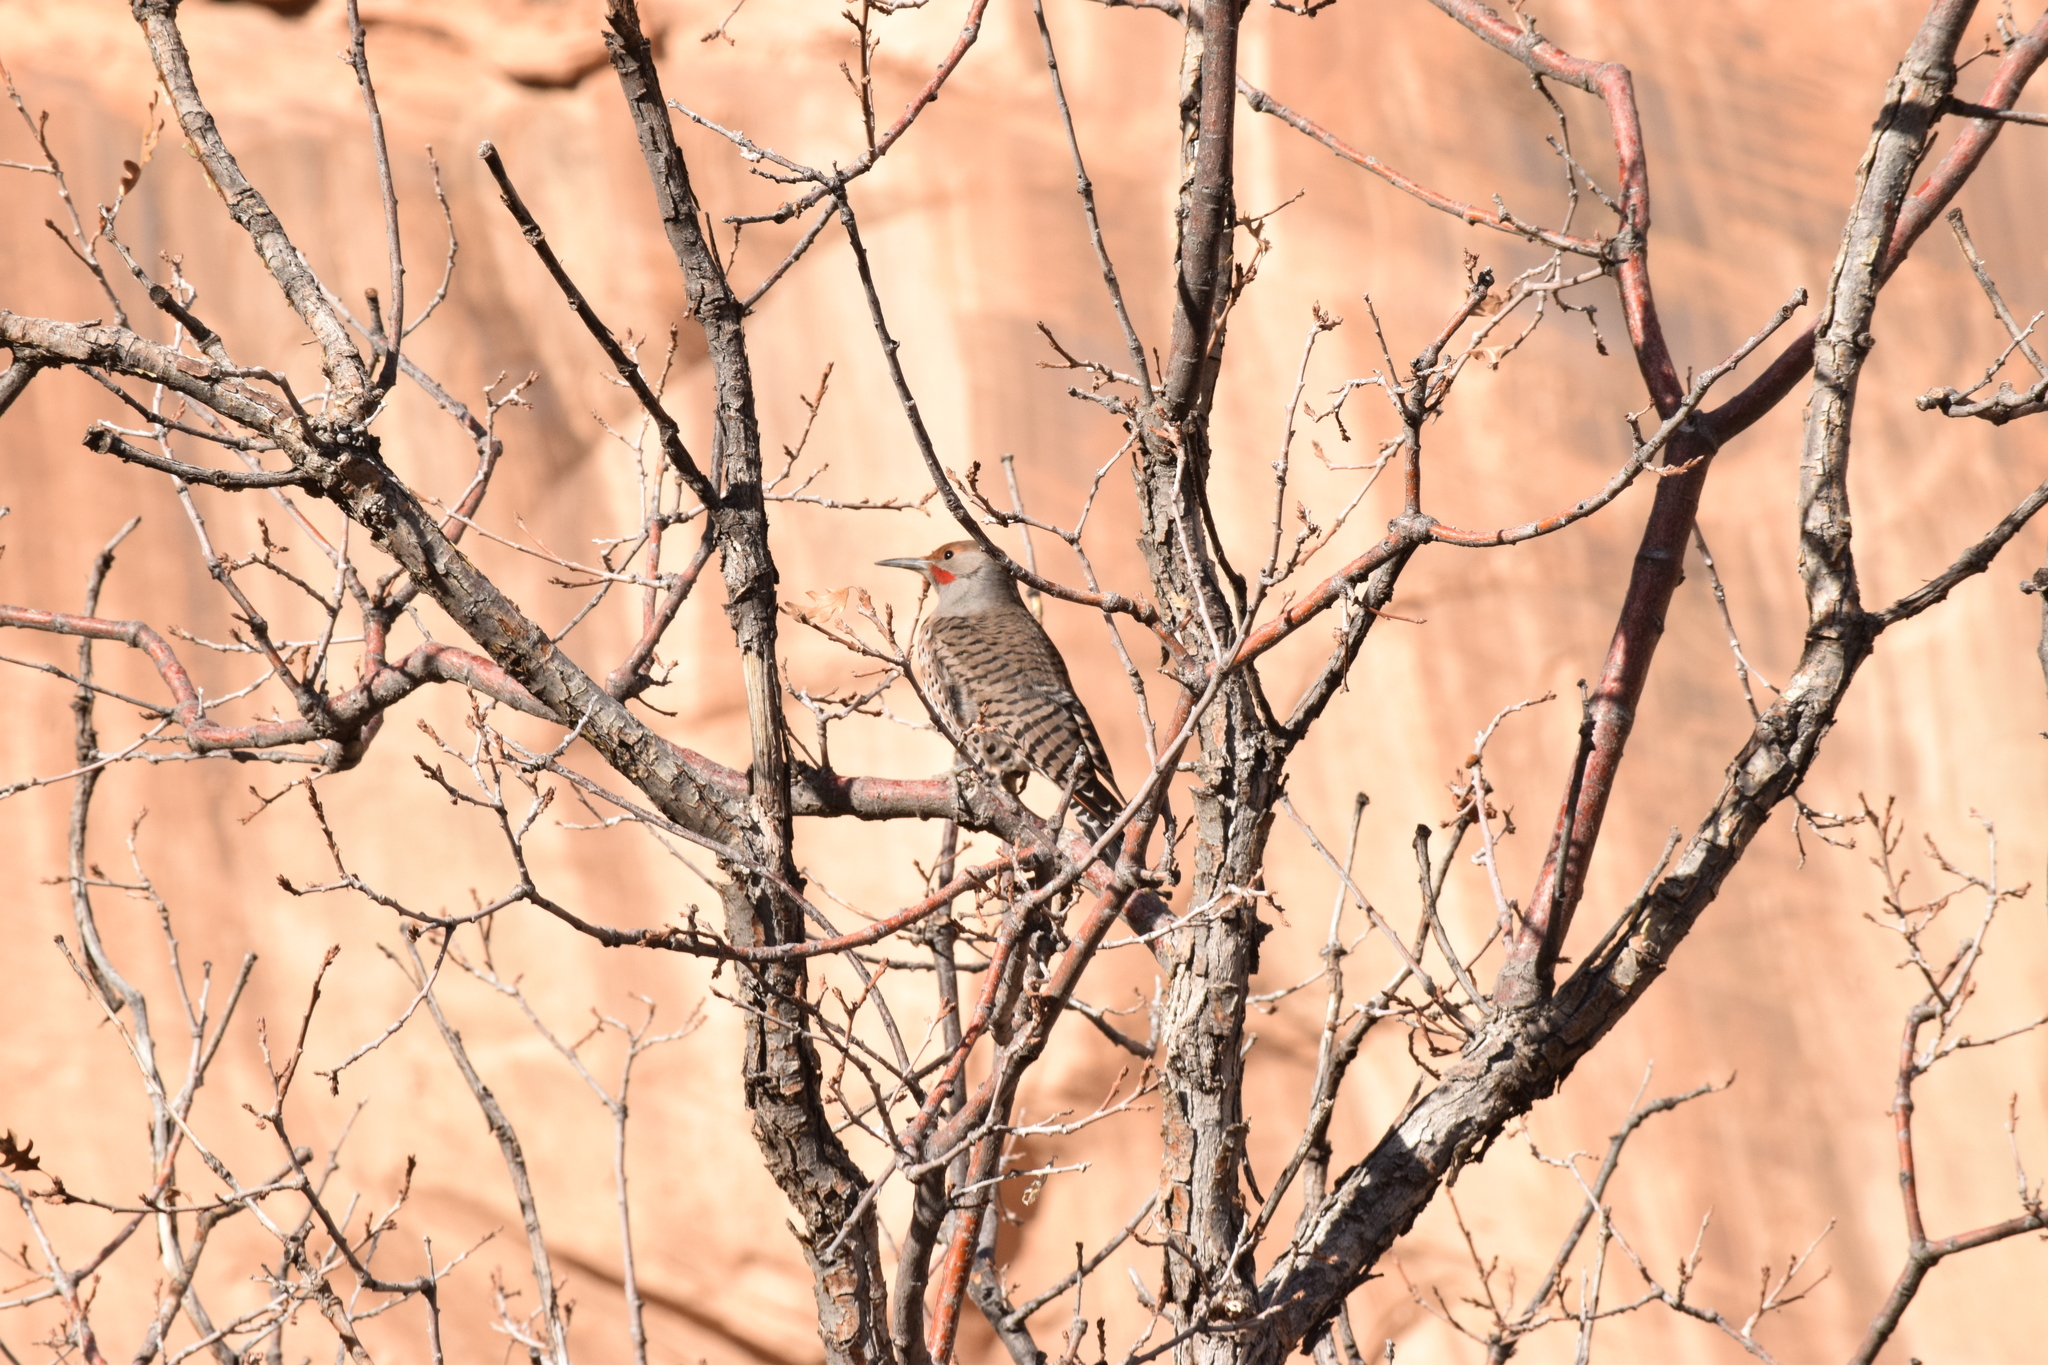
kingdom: Animalia
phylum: Chordata
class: Aves
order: Piciformes
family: Picidae
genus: Colaptes
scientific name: Colaptes auratus
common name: Northern flicker
